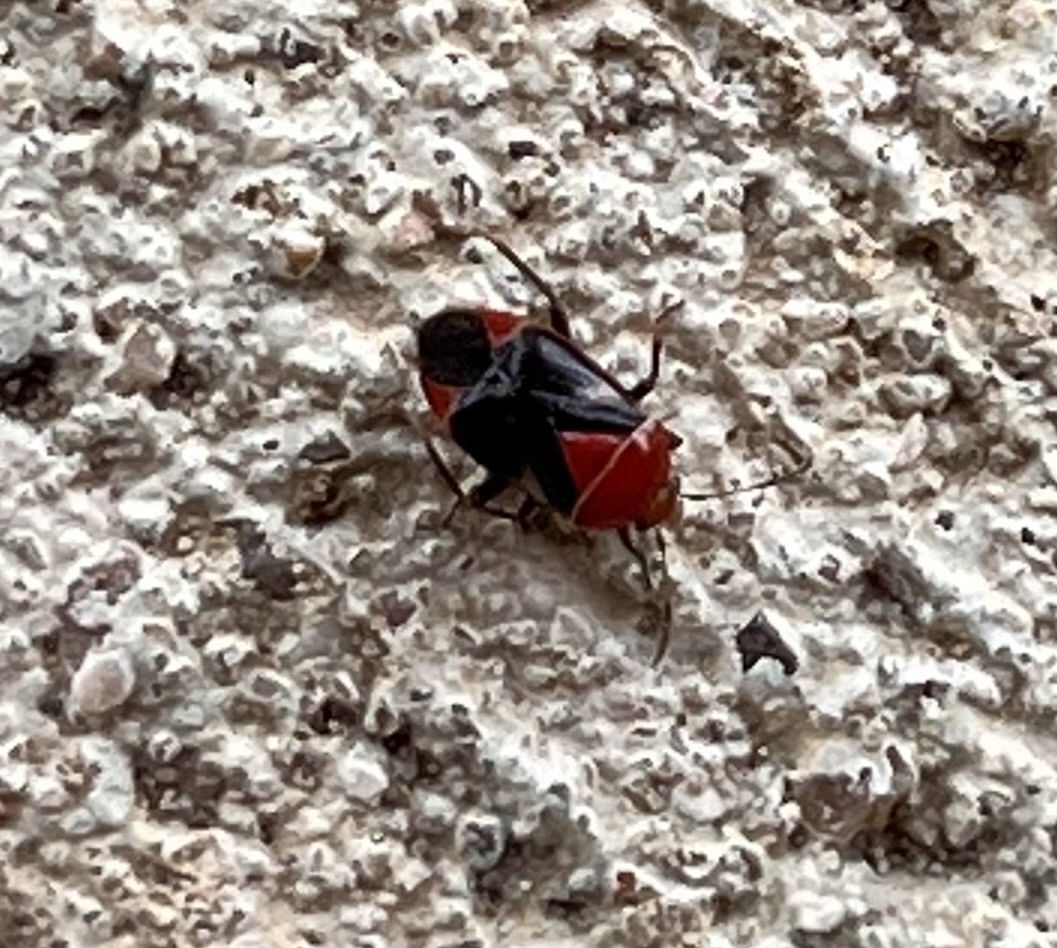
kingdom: Animalia
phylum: Arthropoda
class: Insecta
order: Hemiptera
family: Miridae
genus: Neocapsus
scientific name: Neocapsus cuneatus
